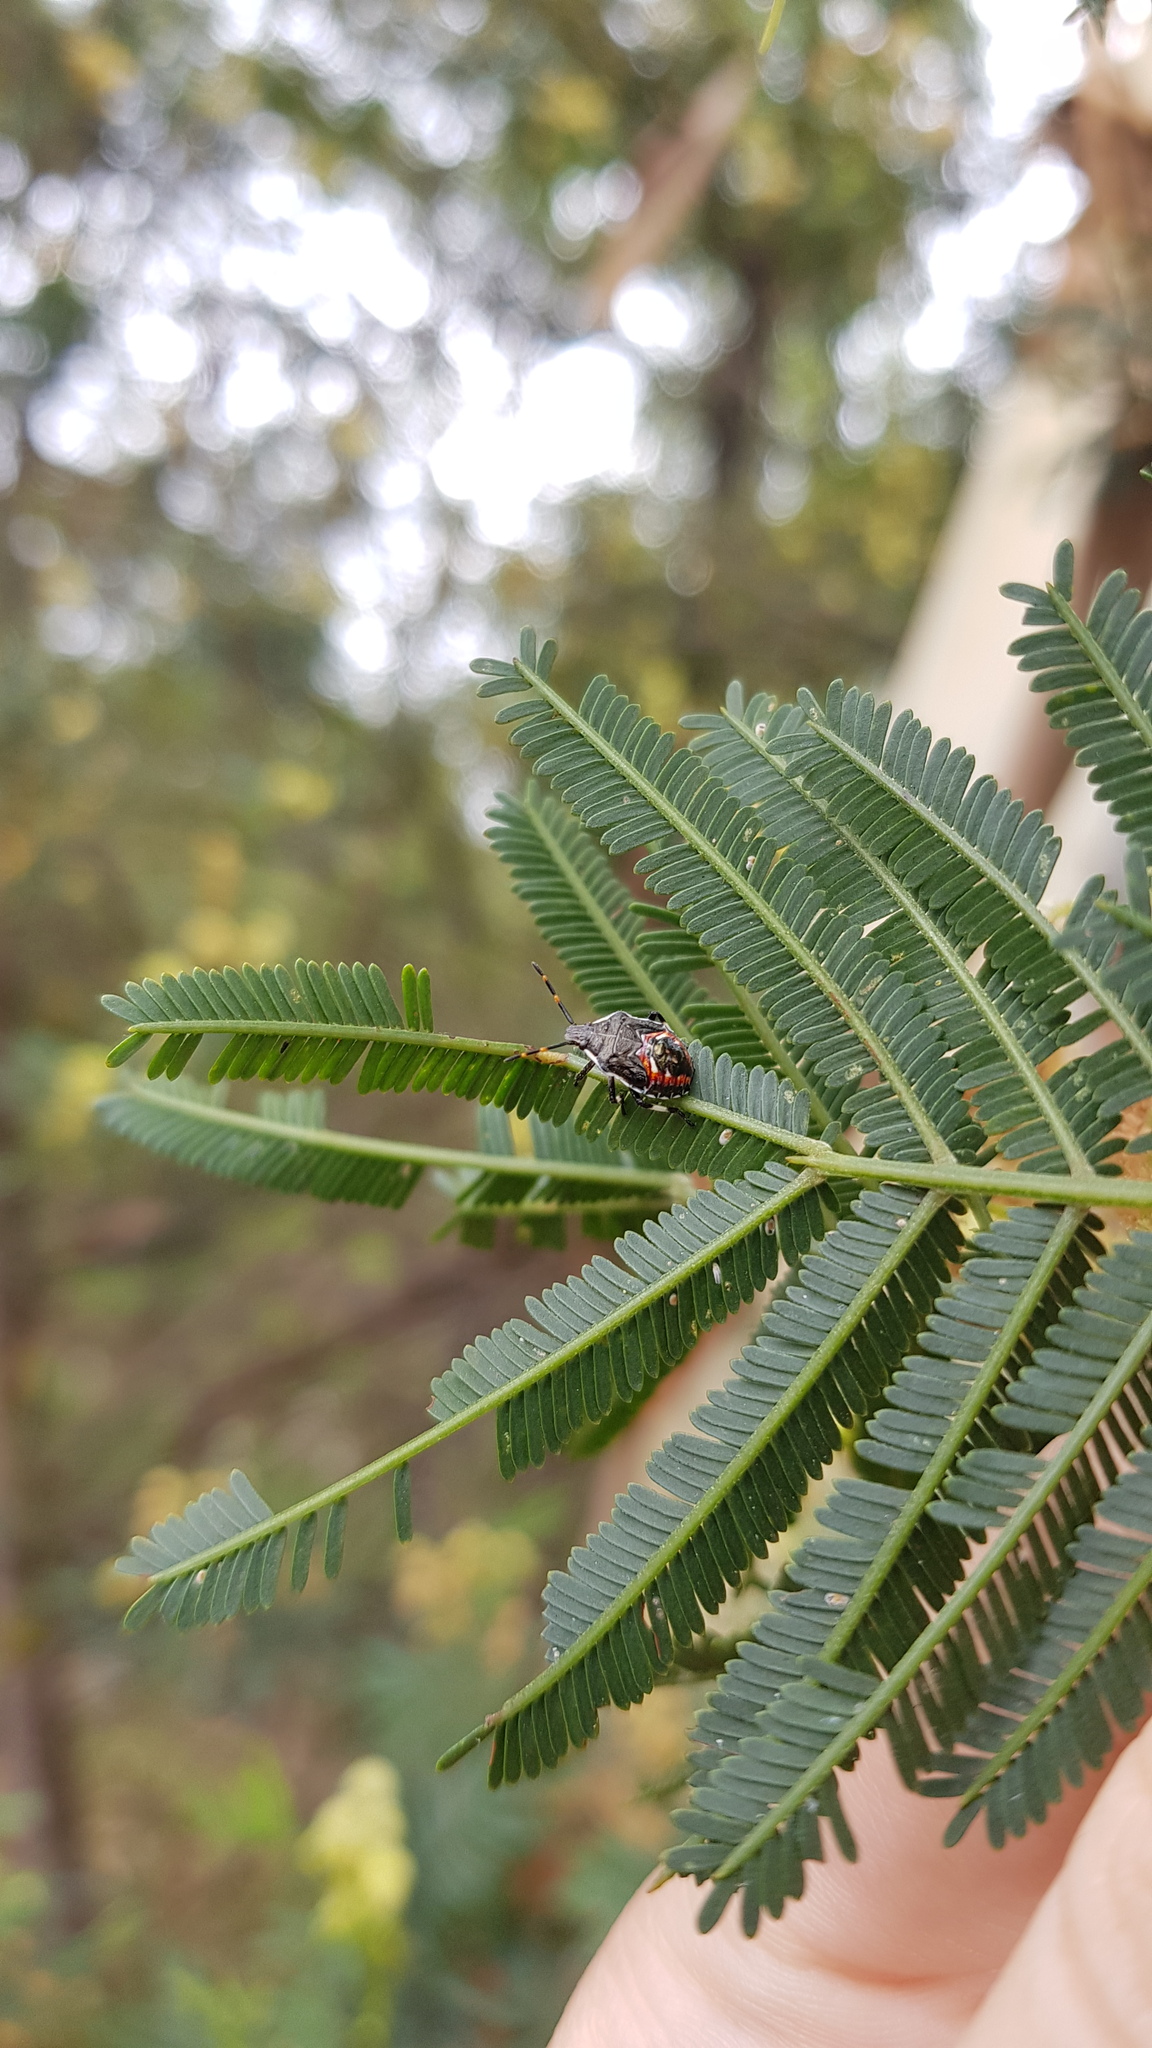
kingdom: Animalia
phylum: Arthropoda
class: Insecta
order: Hemiptera
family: Pentatomidae
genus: Oechalia
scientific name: Oechalia schellenbergii
